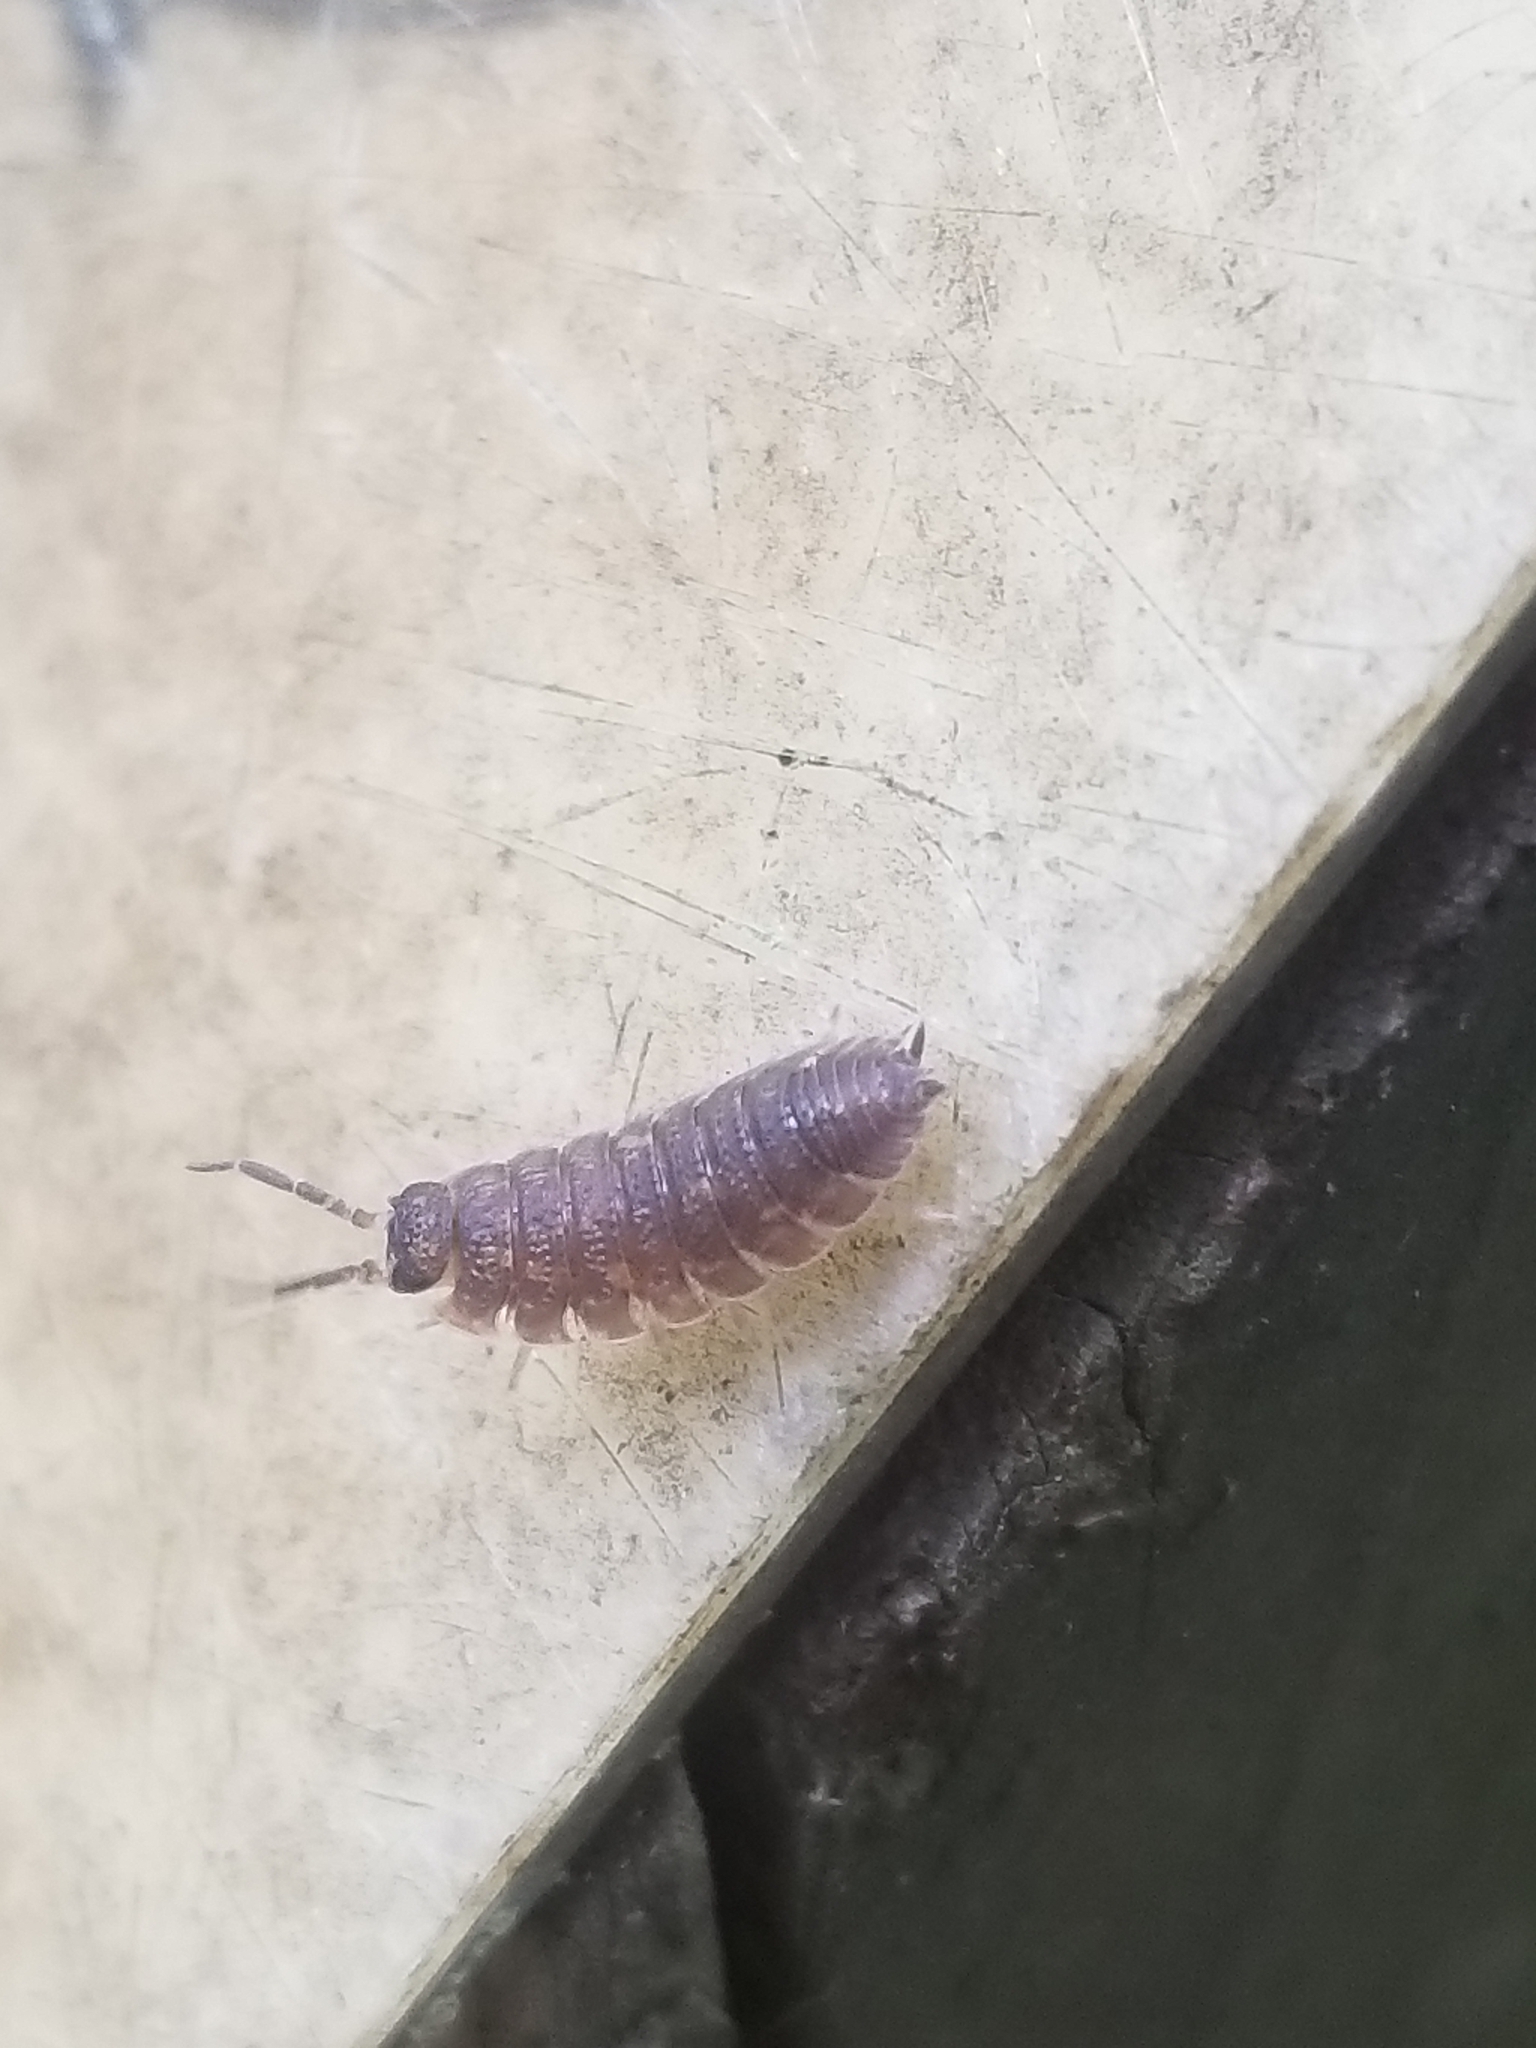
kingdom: Animalia
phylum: Arthropoda
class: Malacostraca
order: Isopoda
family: Porcellionidae
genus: Porcellio
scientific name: Porcellio scaber
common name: Common rough woodlouse
